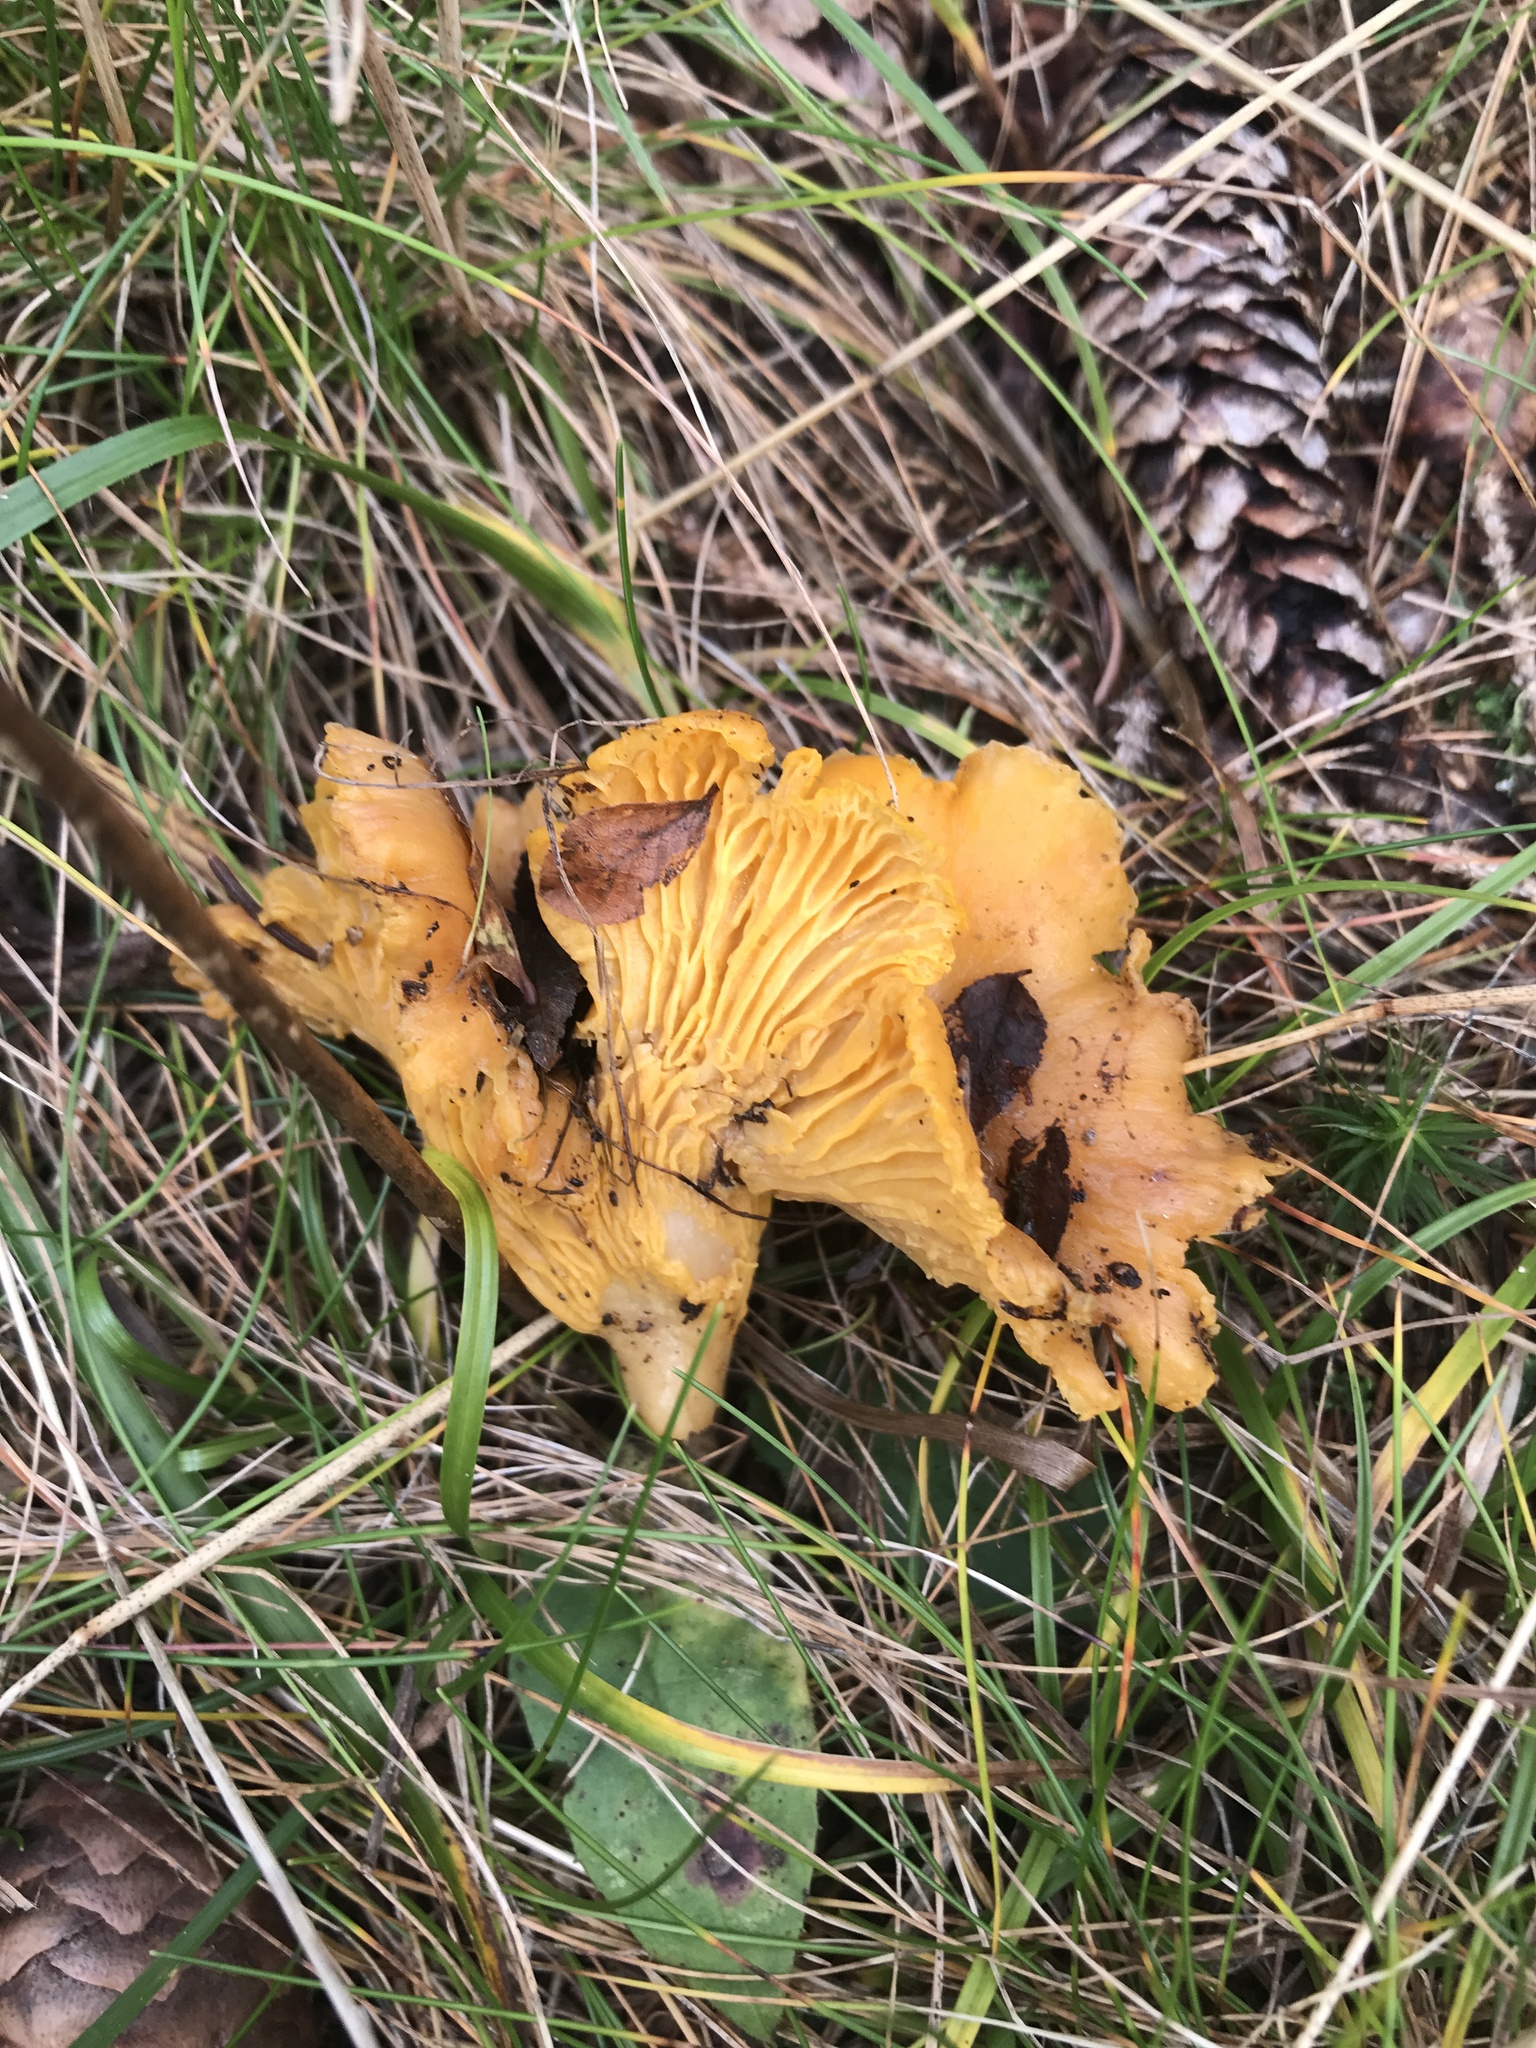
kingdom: Fungi
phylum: Basidiomycota
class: Agaricomycetes
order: Cantharellales
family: Hydnaceae
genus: Cantharellus
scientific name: Cantharellus cibarius
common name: Chanterelle
